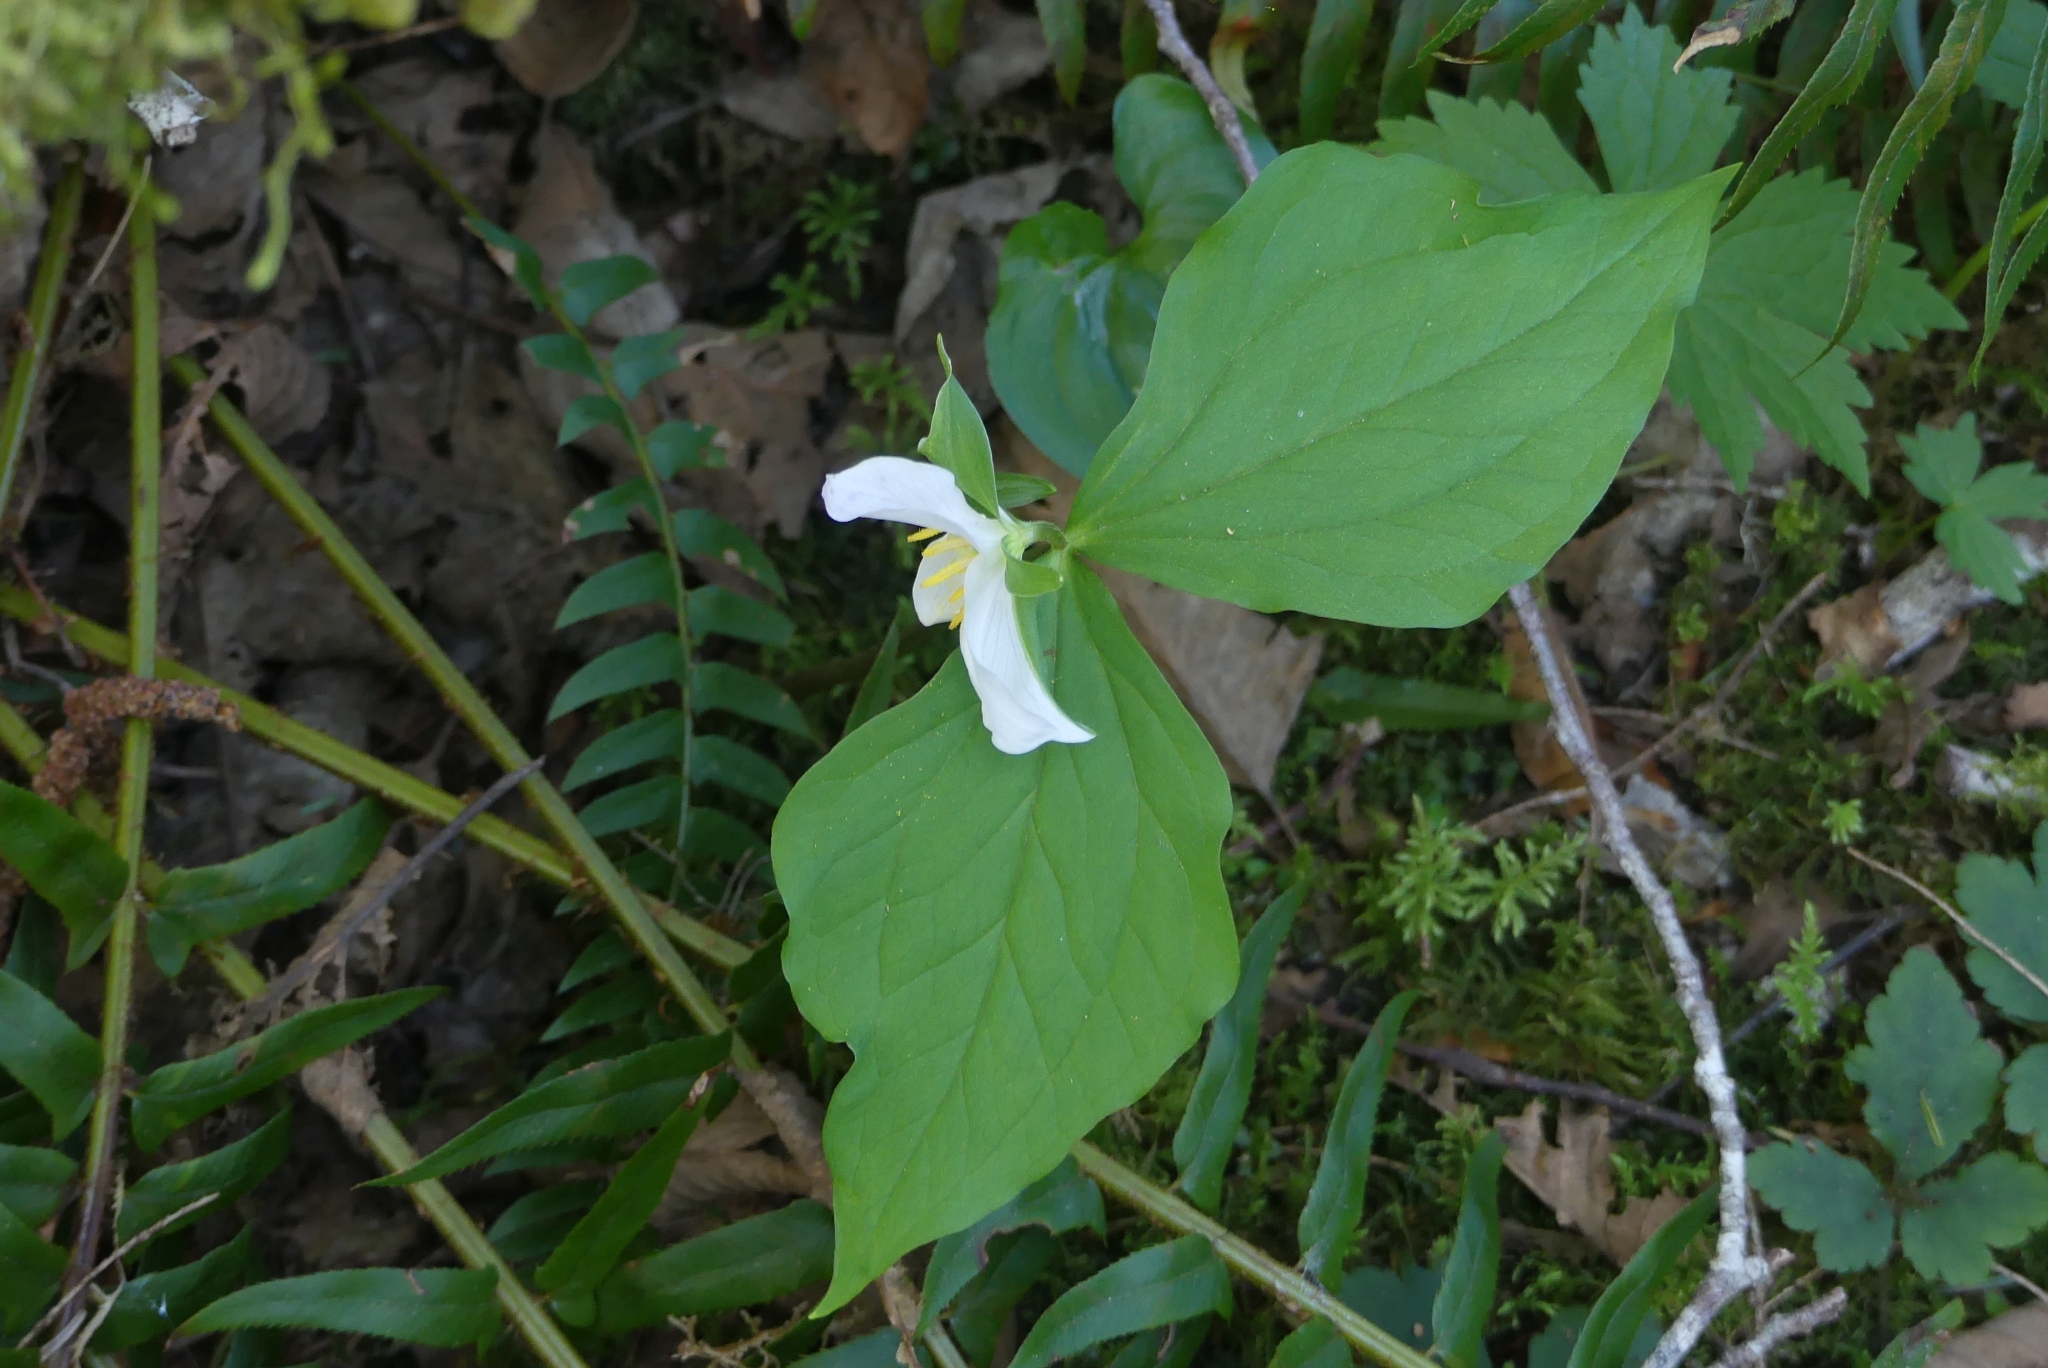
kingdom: Plantae
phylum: Tracheophyta
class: Liliopsida
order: Liliales
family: Melanthiaceae
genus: Trillium
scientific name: Trillium ovatum
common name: Pacific trillium
